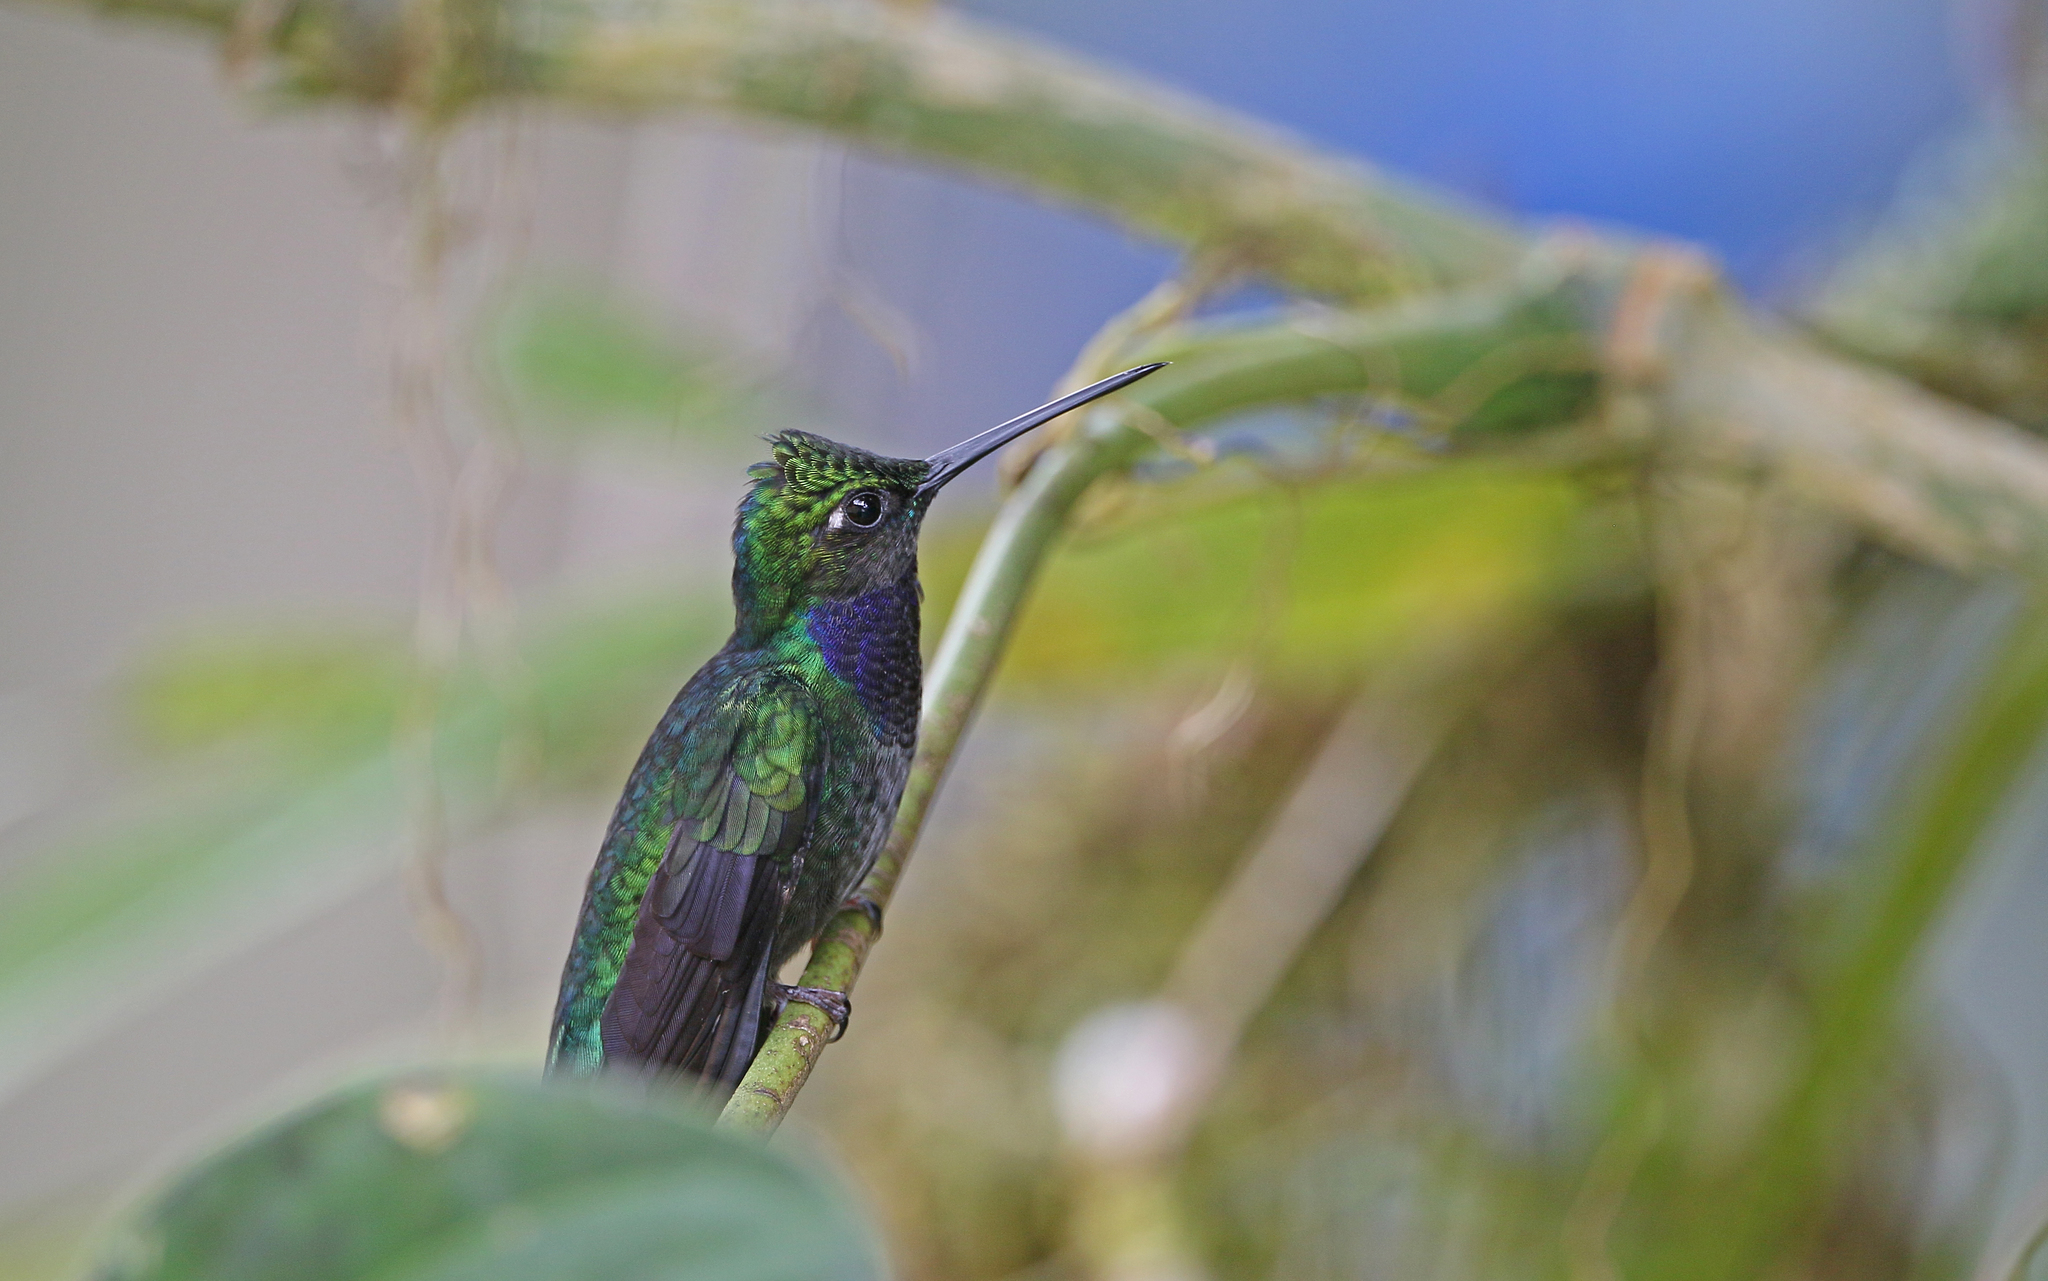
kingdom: Animalia
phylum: Chordata
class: Aves
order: Apodiformes
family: Trochilidae
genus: Campylopterus
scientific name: Campylopterus villaviscensio
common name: Napo sabrewing
